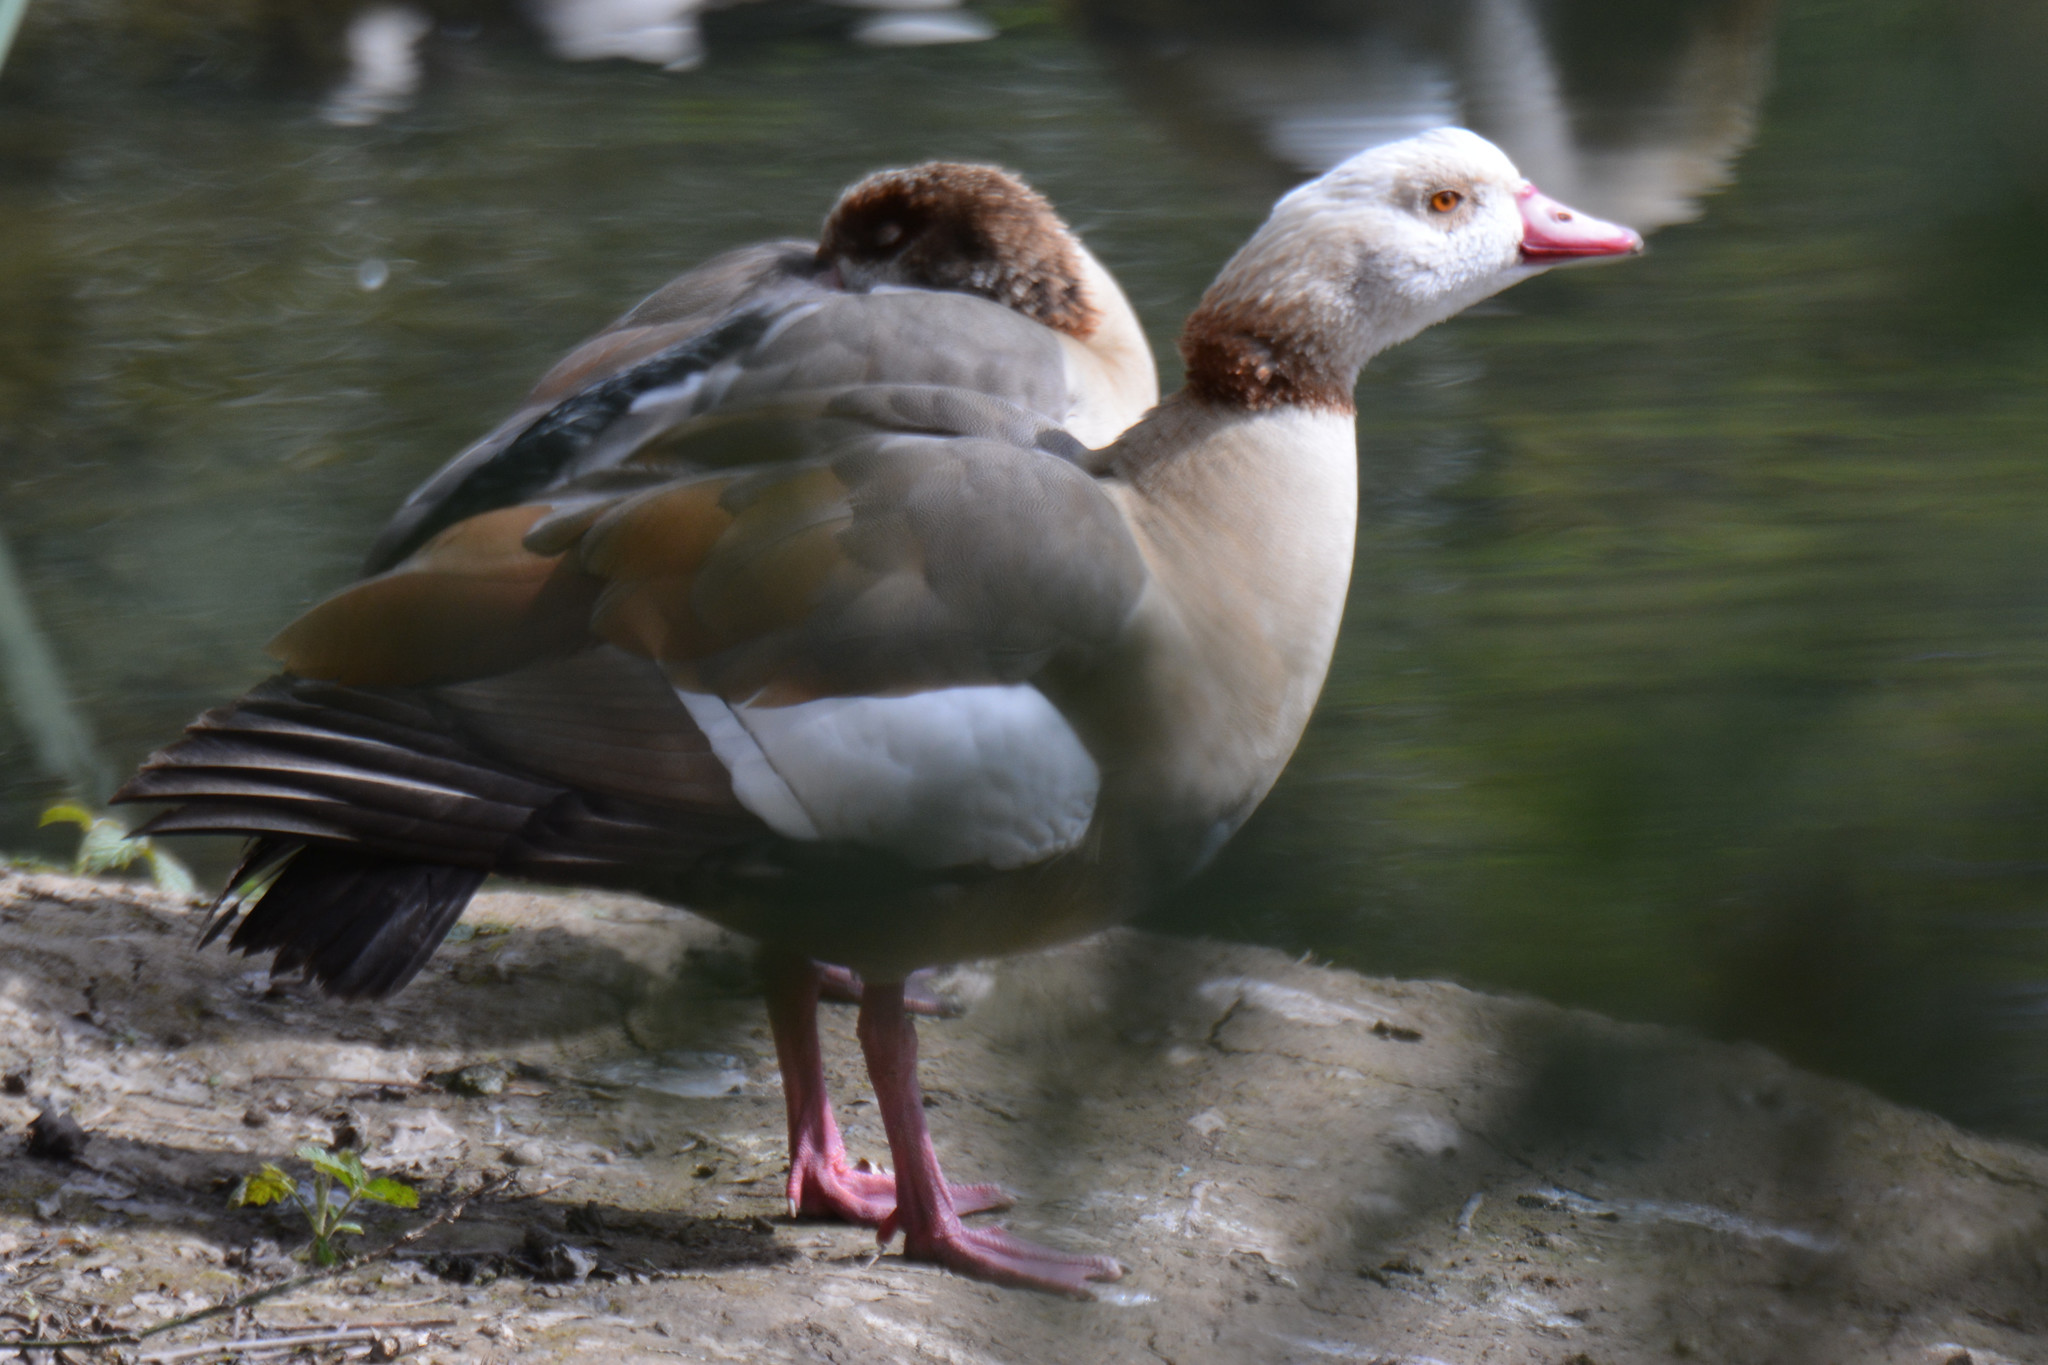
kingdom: Animalia
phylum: Chordata
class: Aves
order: Anseriformes
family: Anatidae
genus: Alopochen
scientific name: Alopochen aegyptiaca
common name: Egyptian goose
